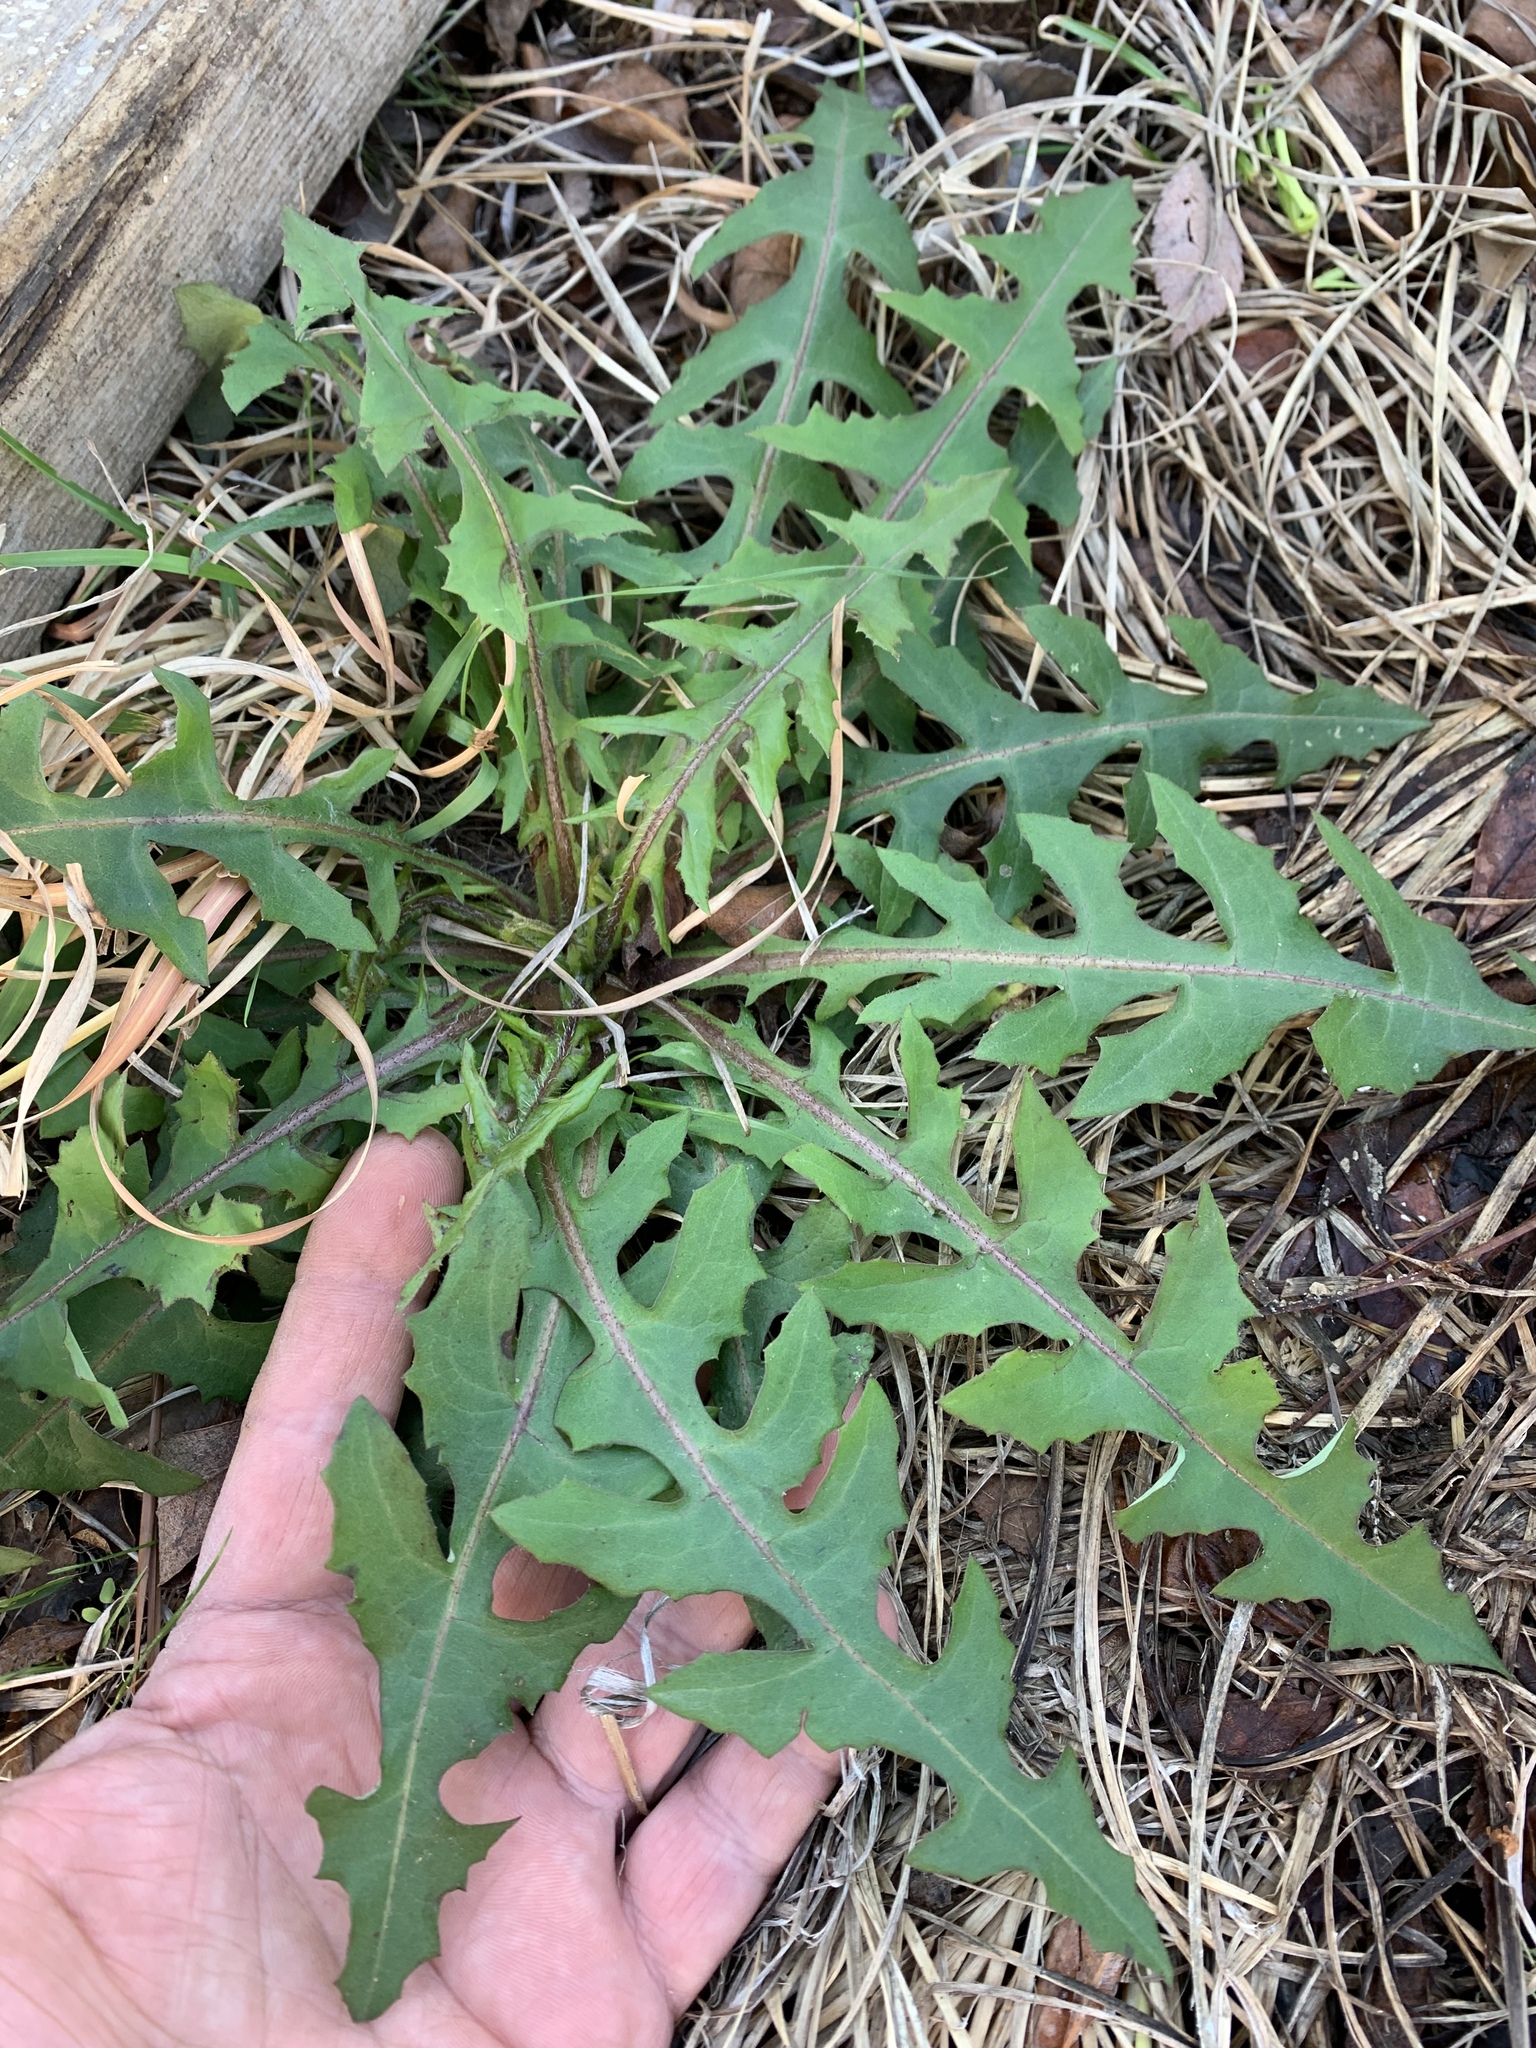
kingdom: Plantae
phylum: Tracheophyta
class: Magnoliopsida
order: Asterales
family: Asteraceae
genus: Lactuca
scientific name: Lactuca canadensis
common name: Canada lettuce
